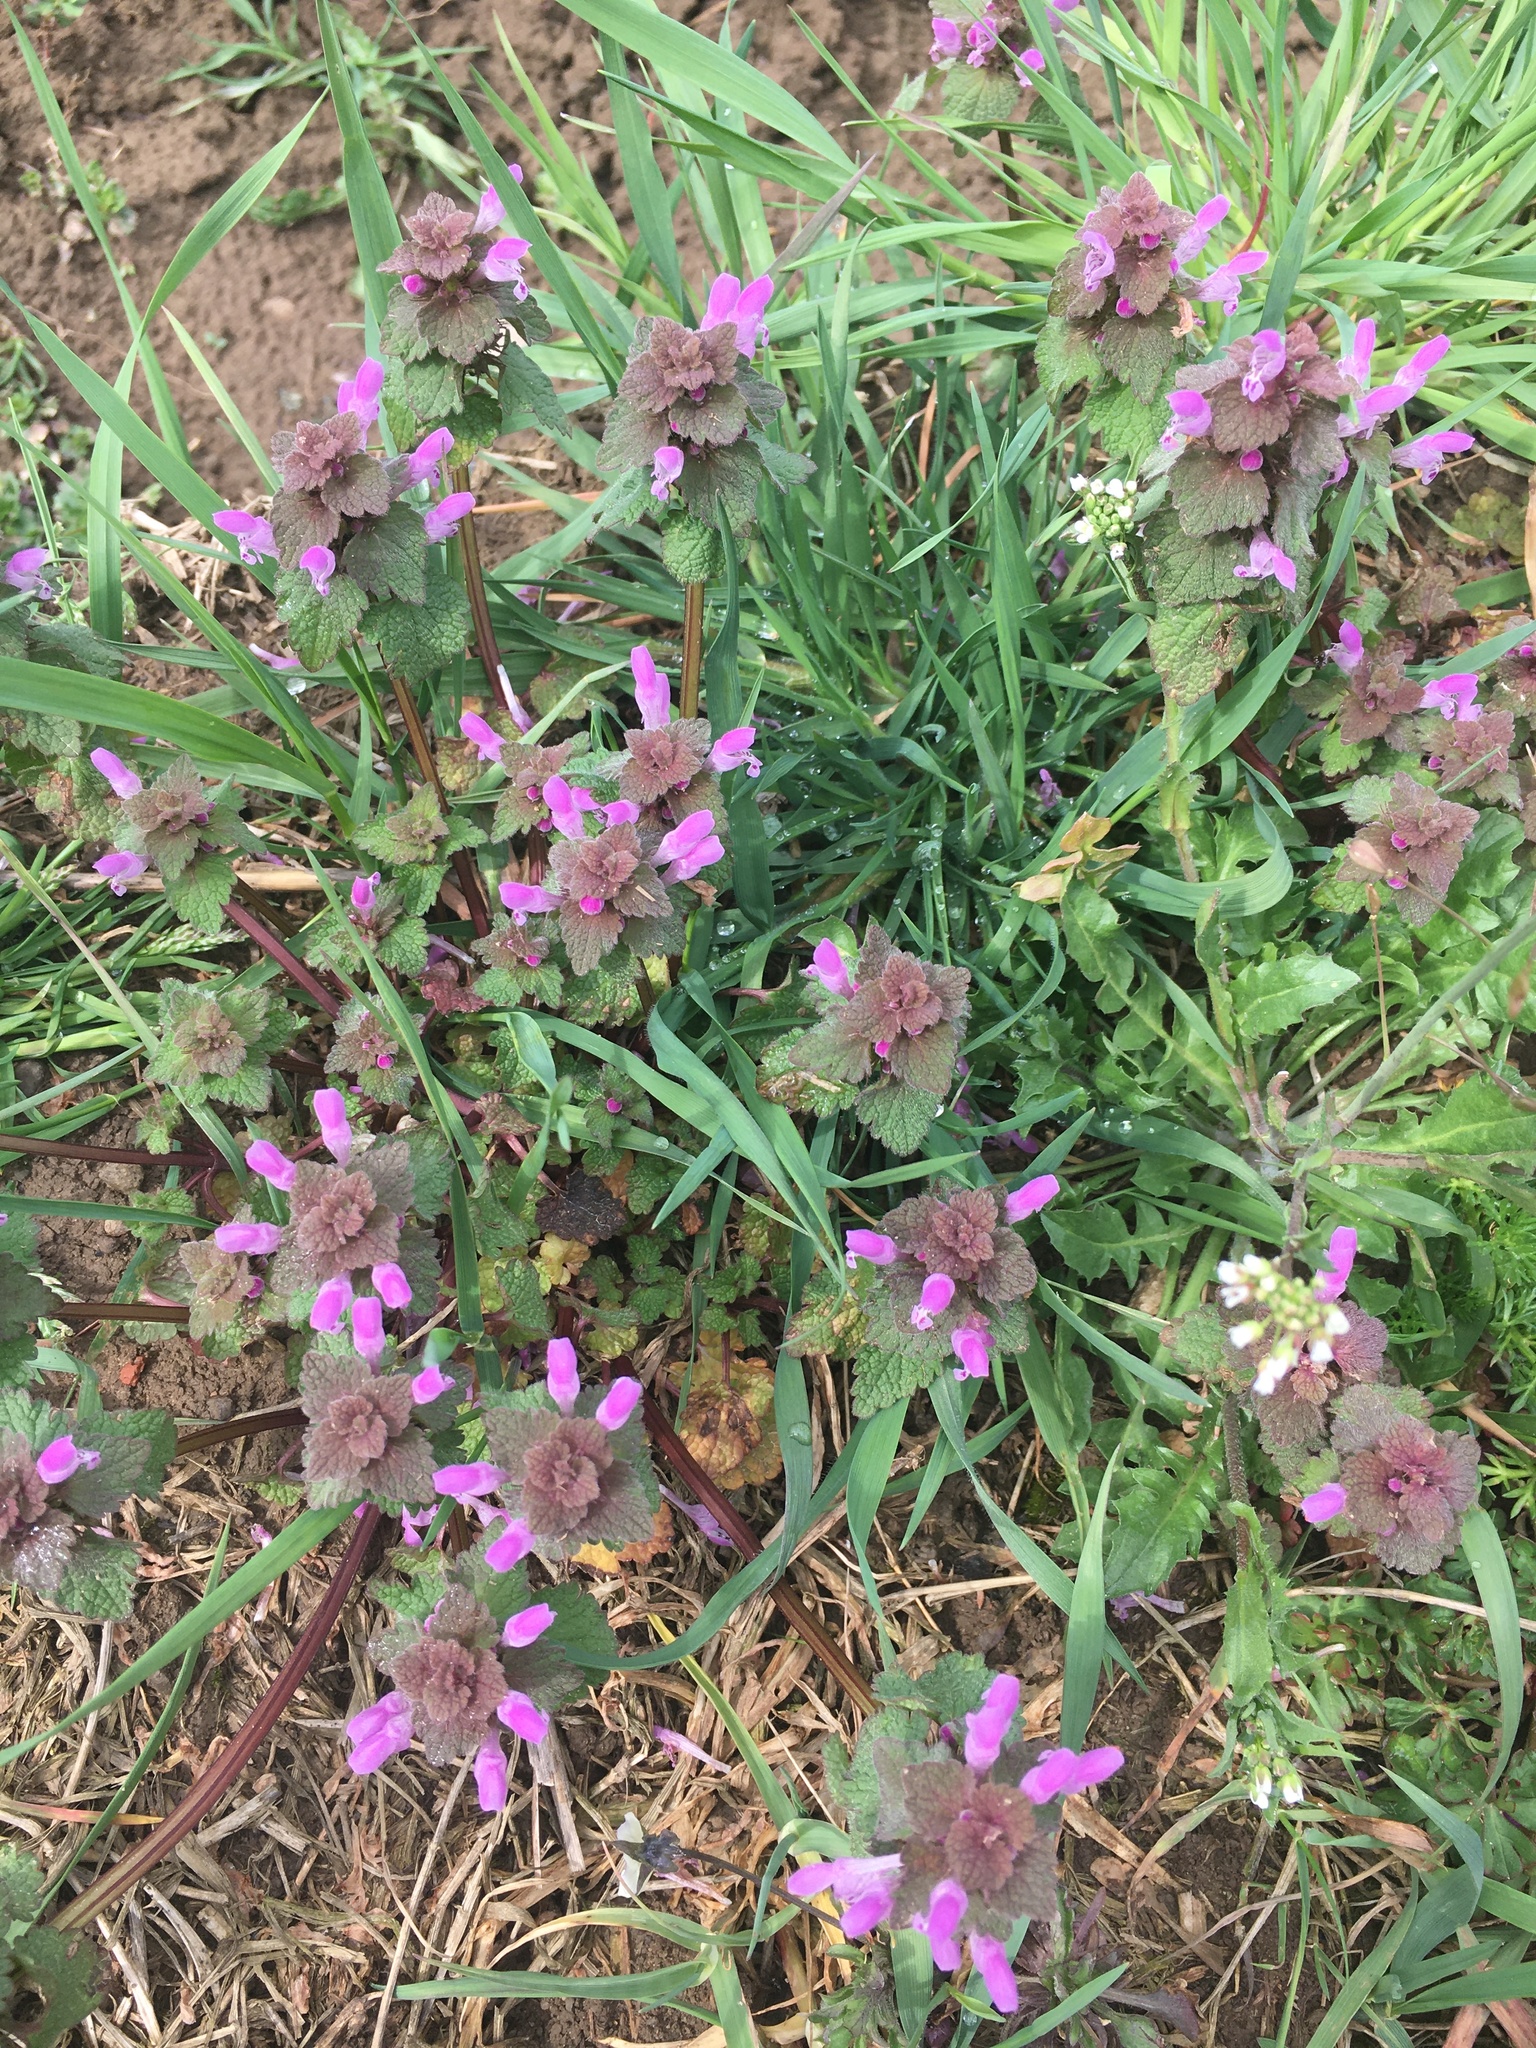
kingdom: Plantae
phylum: Tracheophyta
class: Magnoliopsida
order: Lamiales
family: Lamiaceae
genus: Lamium
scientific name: Lamium purpureum
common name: Red dead-nettle
